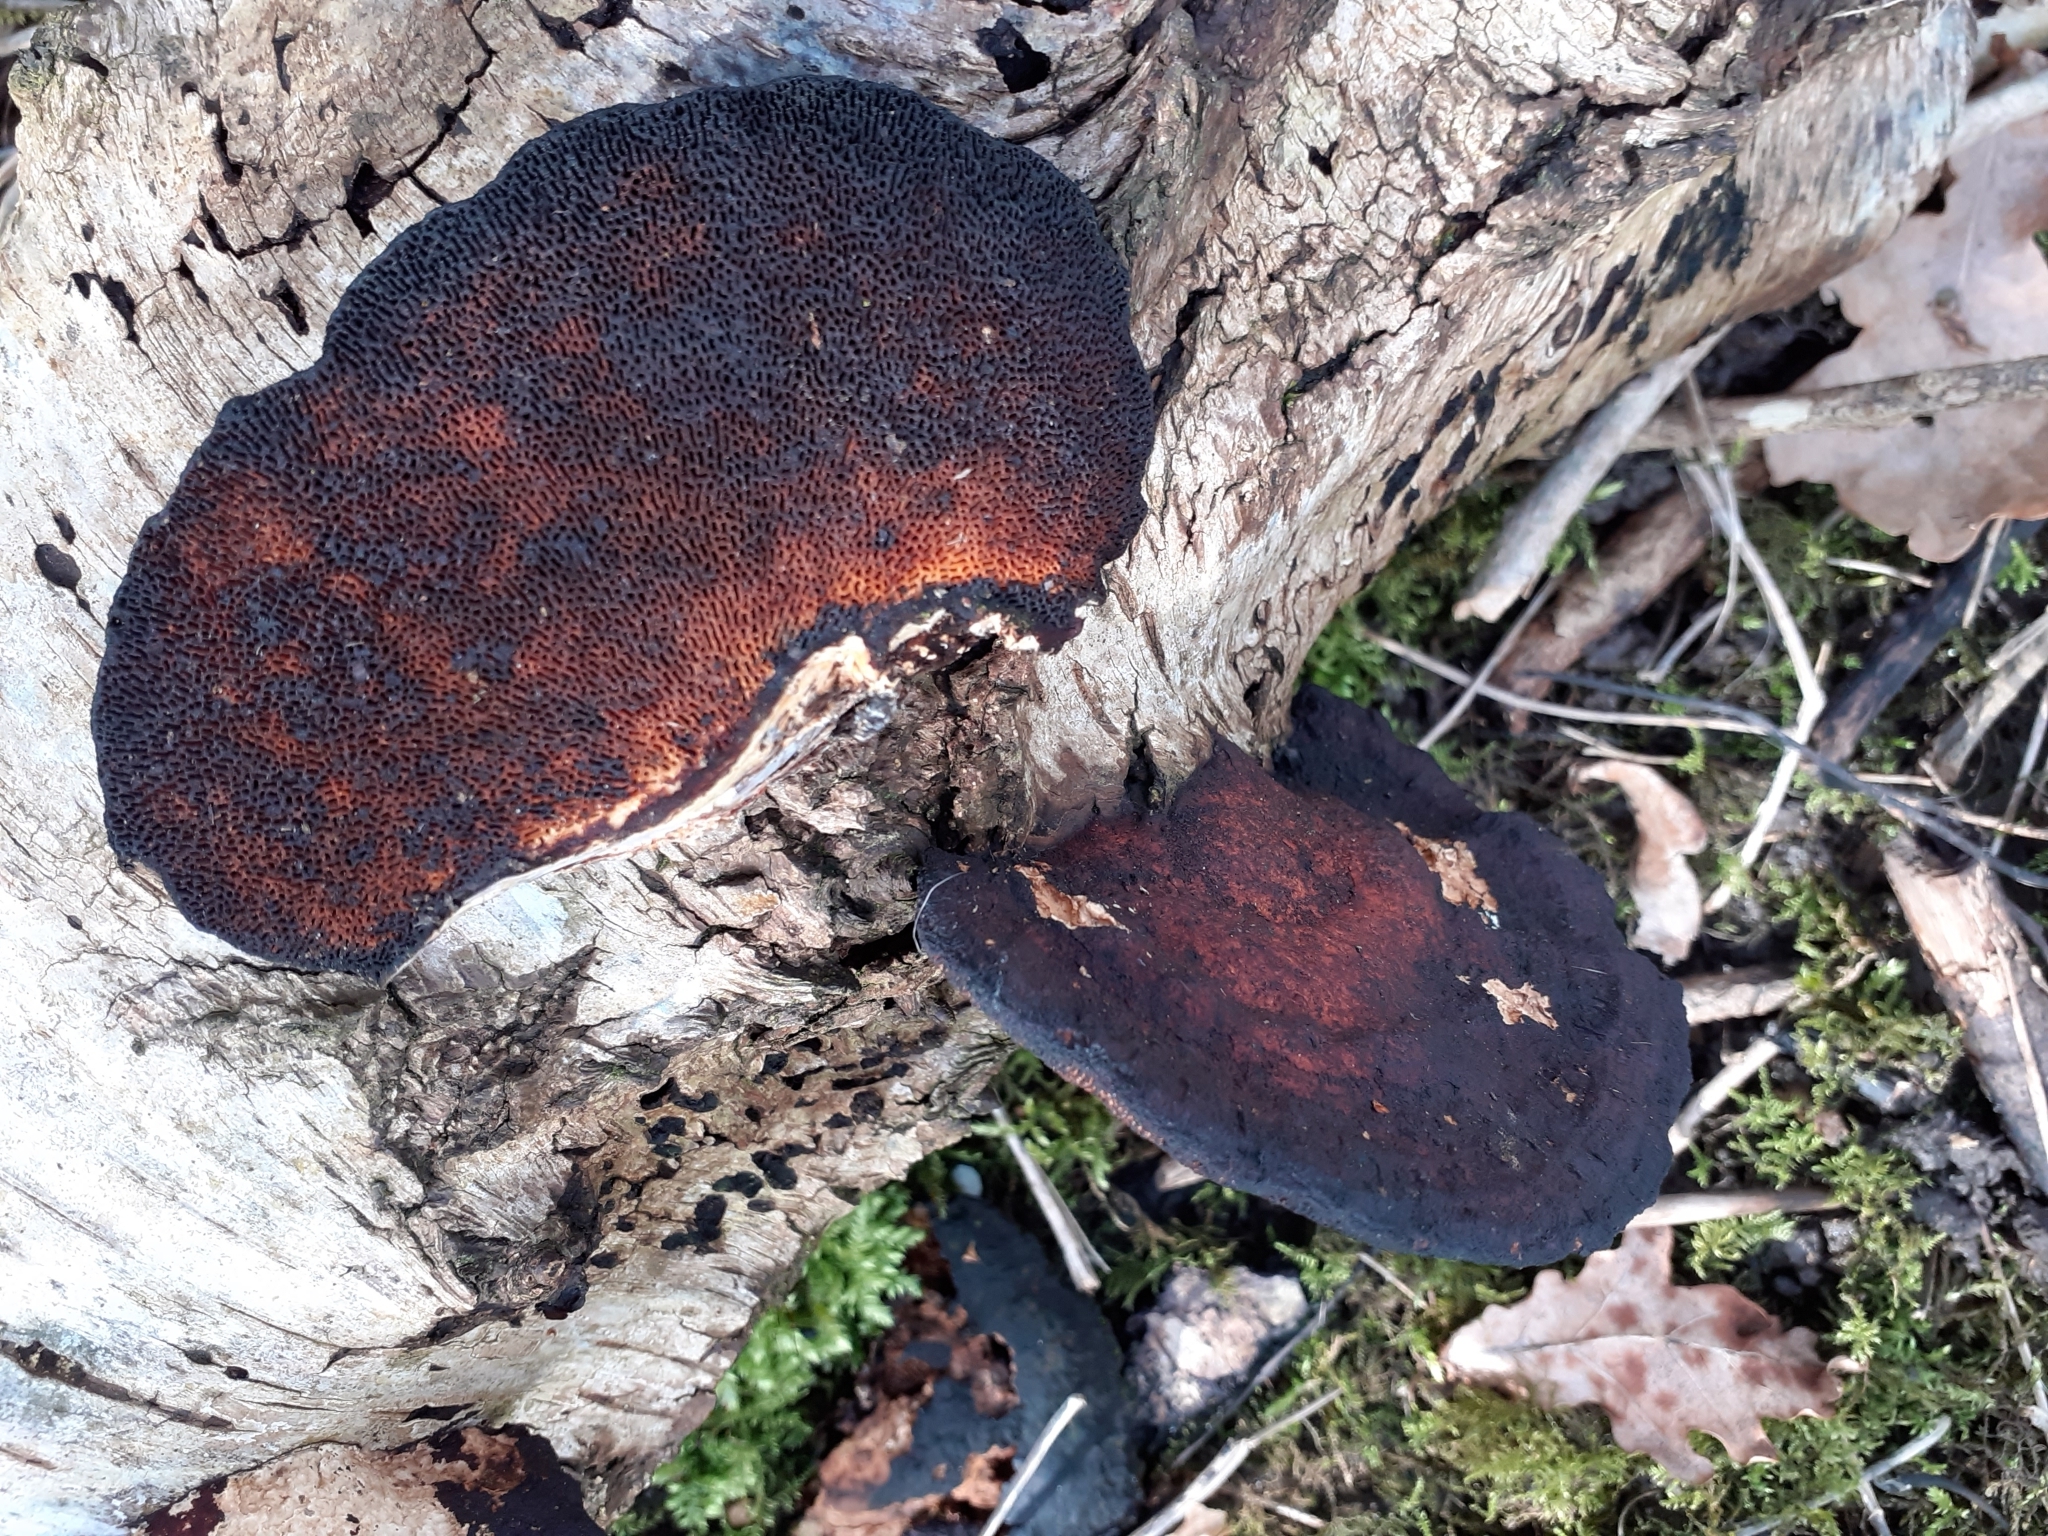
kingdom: Fungi
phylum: Basidiomycota
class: Agaricomycetes
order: Polyporales
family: Polyporaceae
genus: Daedaleopsis
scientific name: Daedaleopsis confragosa
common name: Blushing bracket
